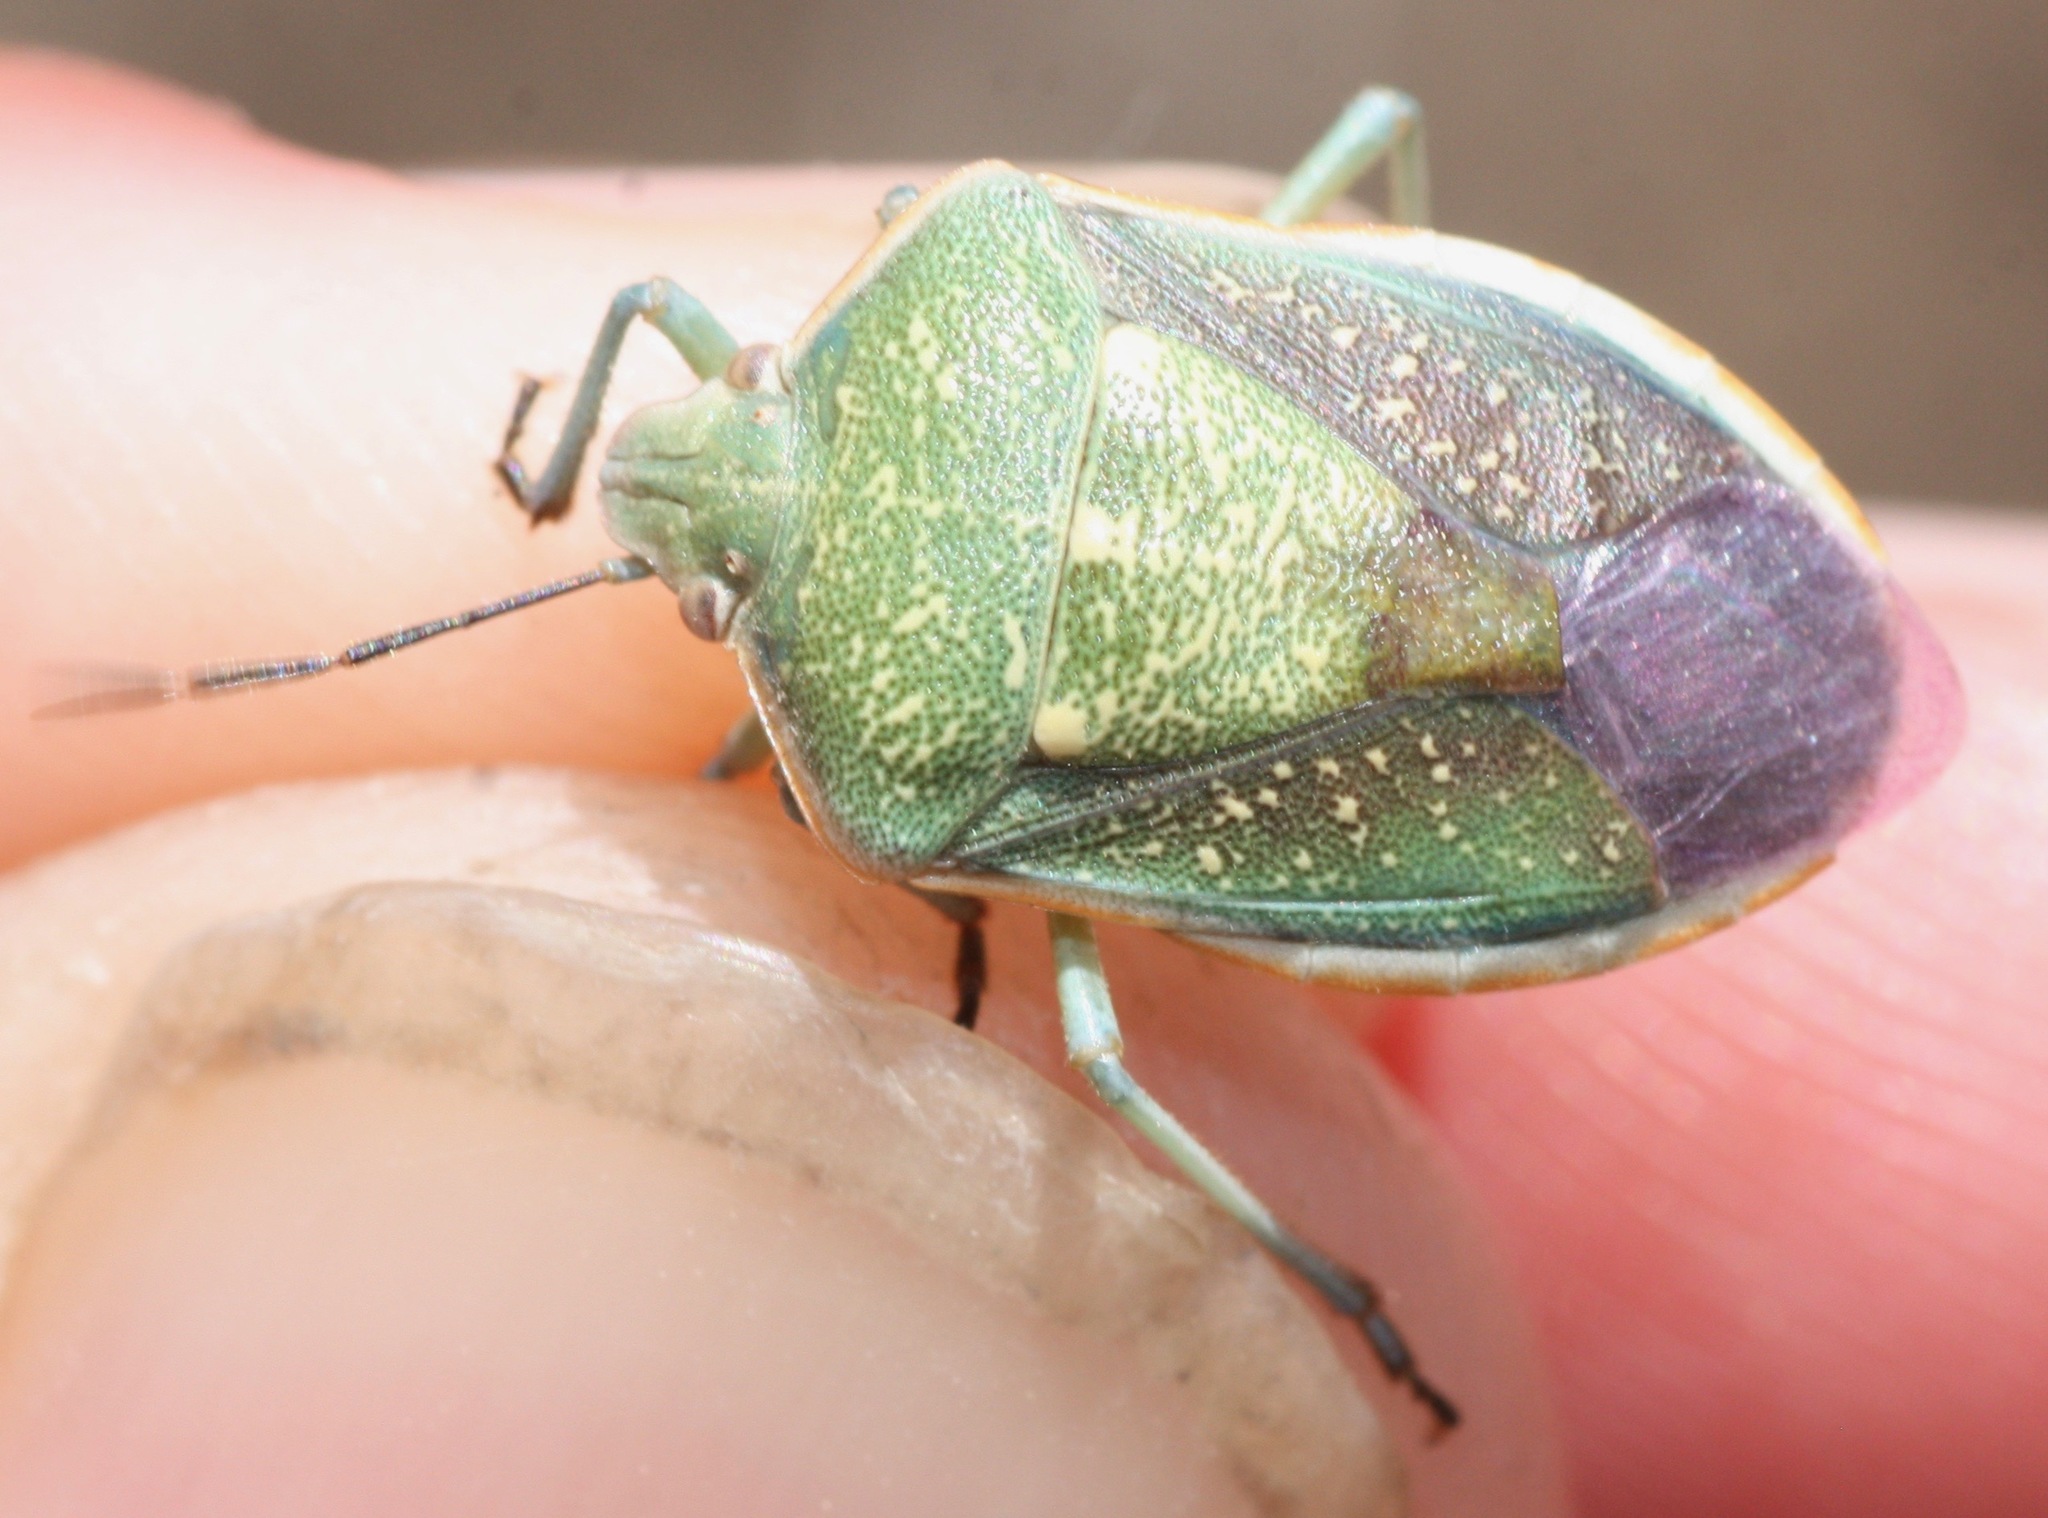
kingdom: Animalia
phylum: Arthropoda
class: Insecta
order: Hemiptera
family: Pentatomidae
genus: Chlorochroa
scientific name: Chlorochroa sayi
